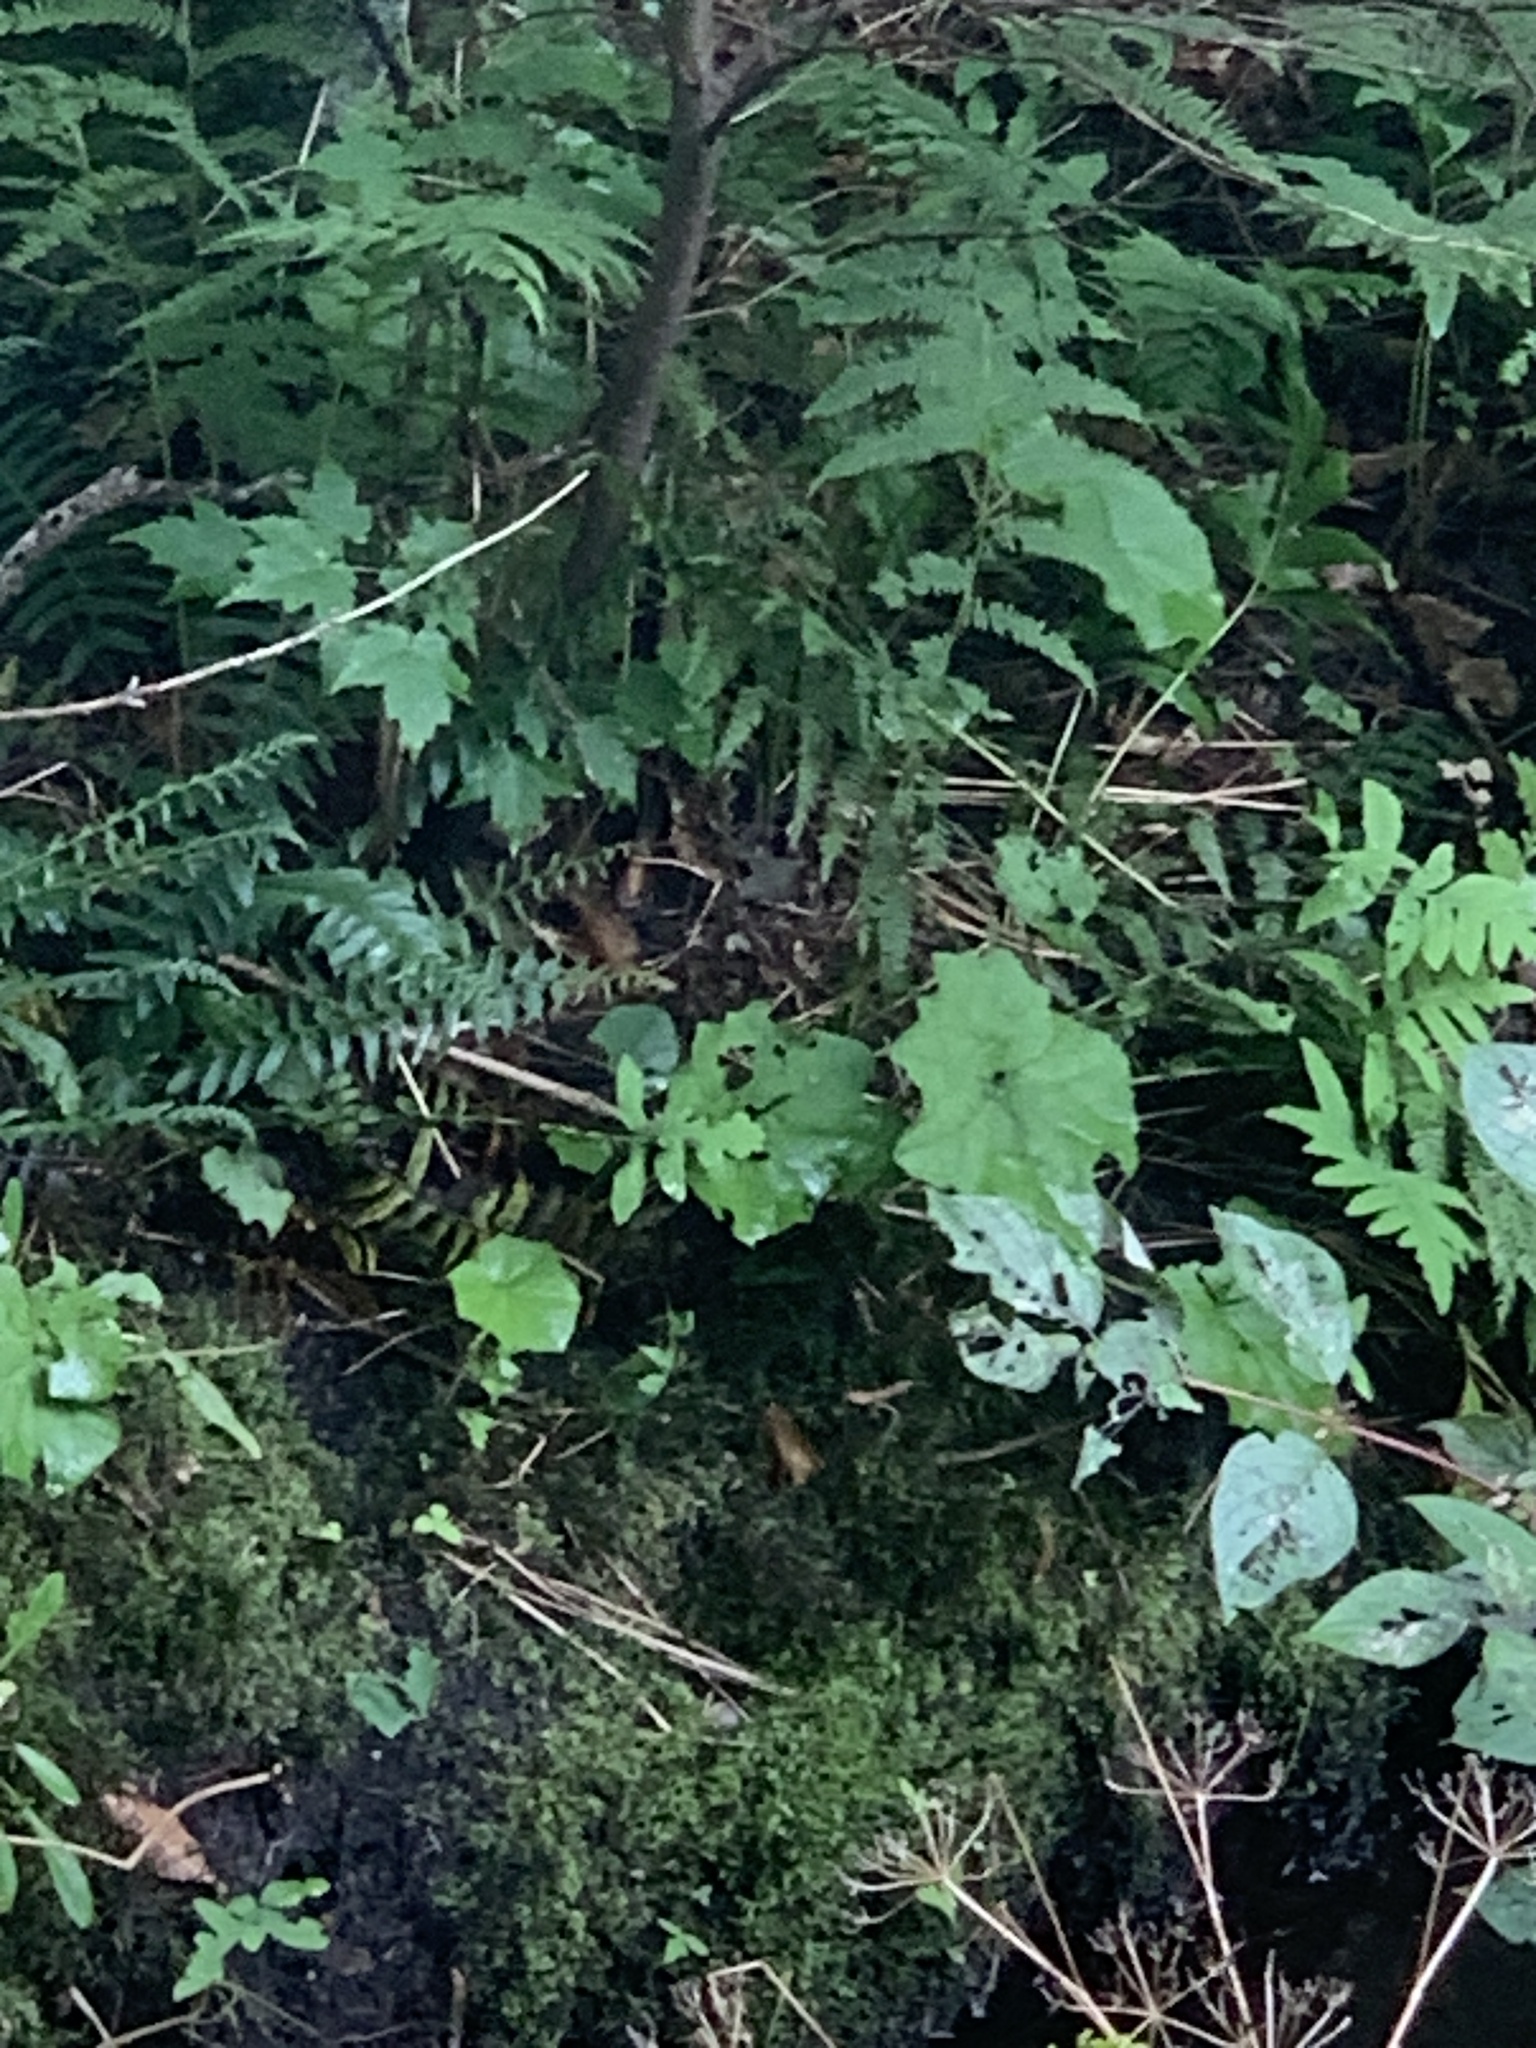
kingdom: Plantae
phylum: Tracheophyta
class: Magnoliopsida
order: Asterales
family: Asteraceae
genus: Tussilago
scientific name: Tussilago farfara
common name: Coltsfoot
